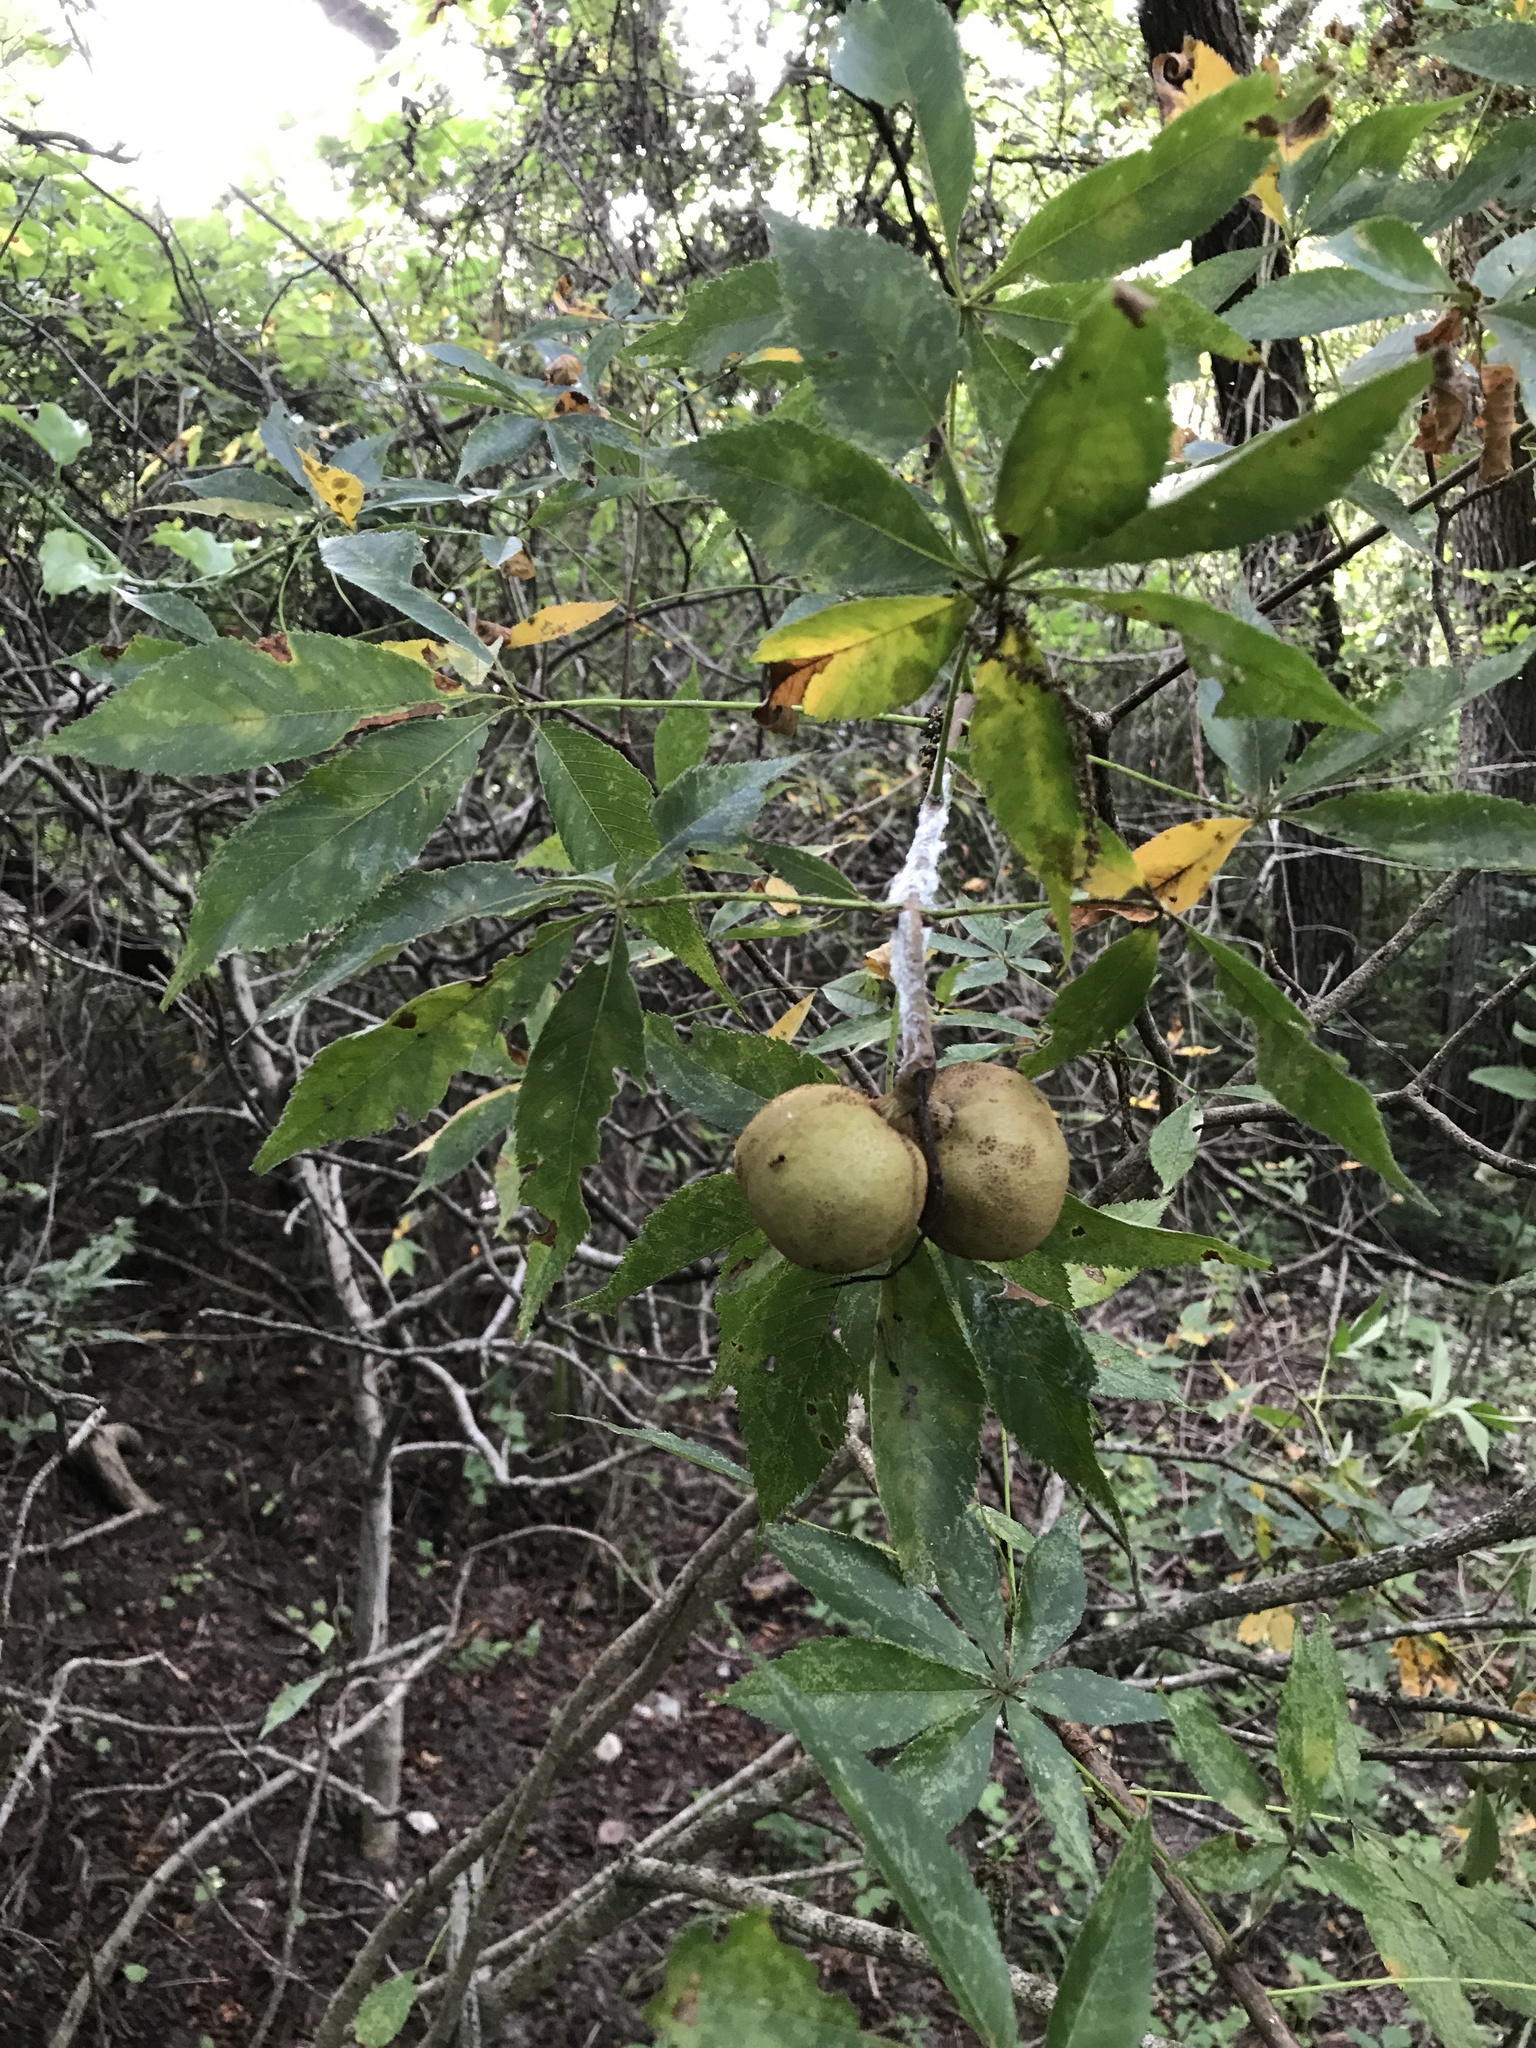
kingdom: Plantae
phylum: Tracheophyta
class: Magnoliopsida
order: Sapindales
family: Sapindaceae
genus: Aesculus
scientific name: Aesculus glabra
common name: Ohio buckeye
